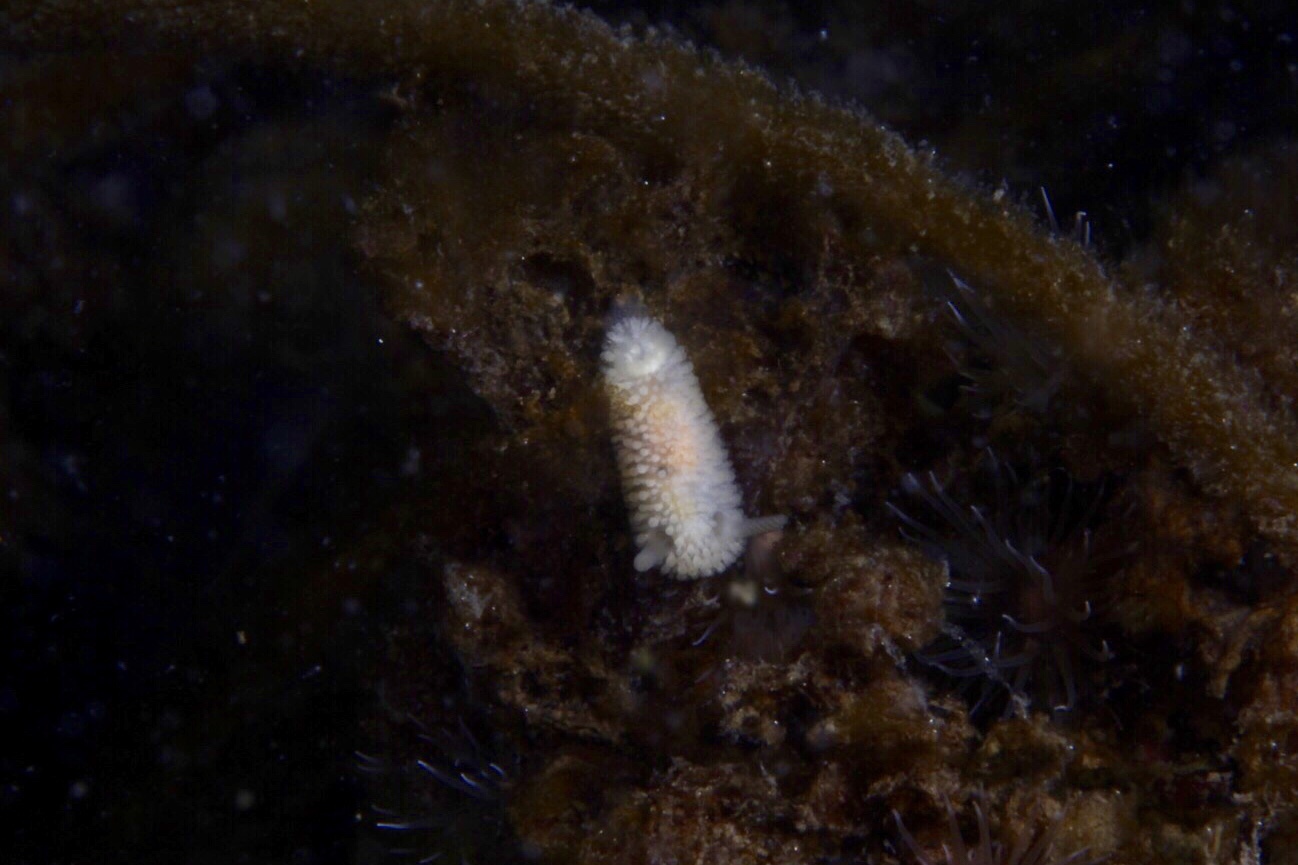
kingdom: Animalia
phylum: Mollusca
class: Gastropoda
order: Nudibranchia
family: Onchidorididae
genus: Onchidoris
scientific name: Onchidoris muricata
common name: Rough doris
